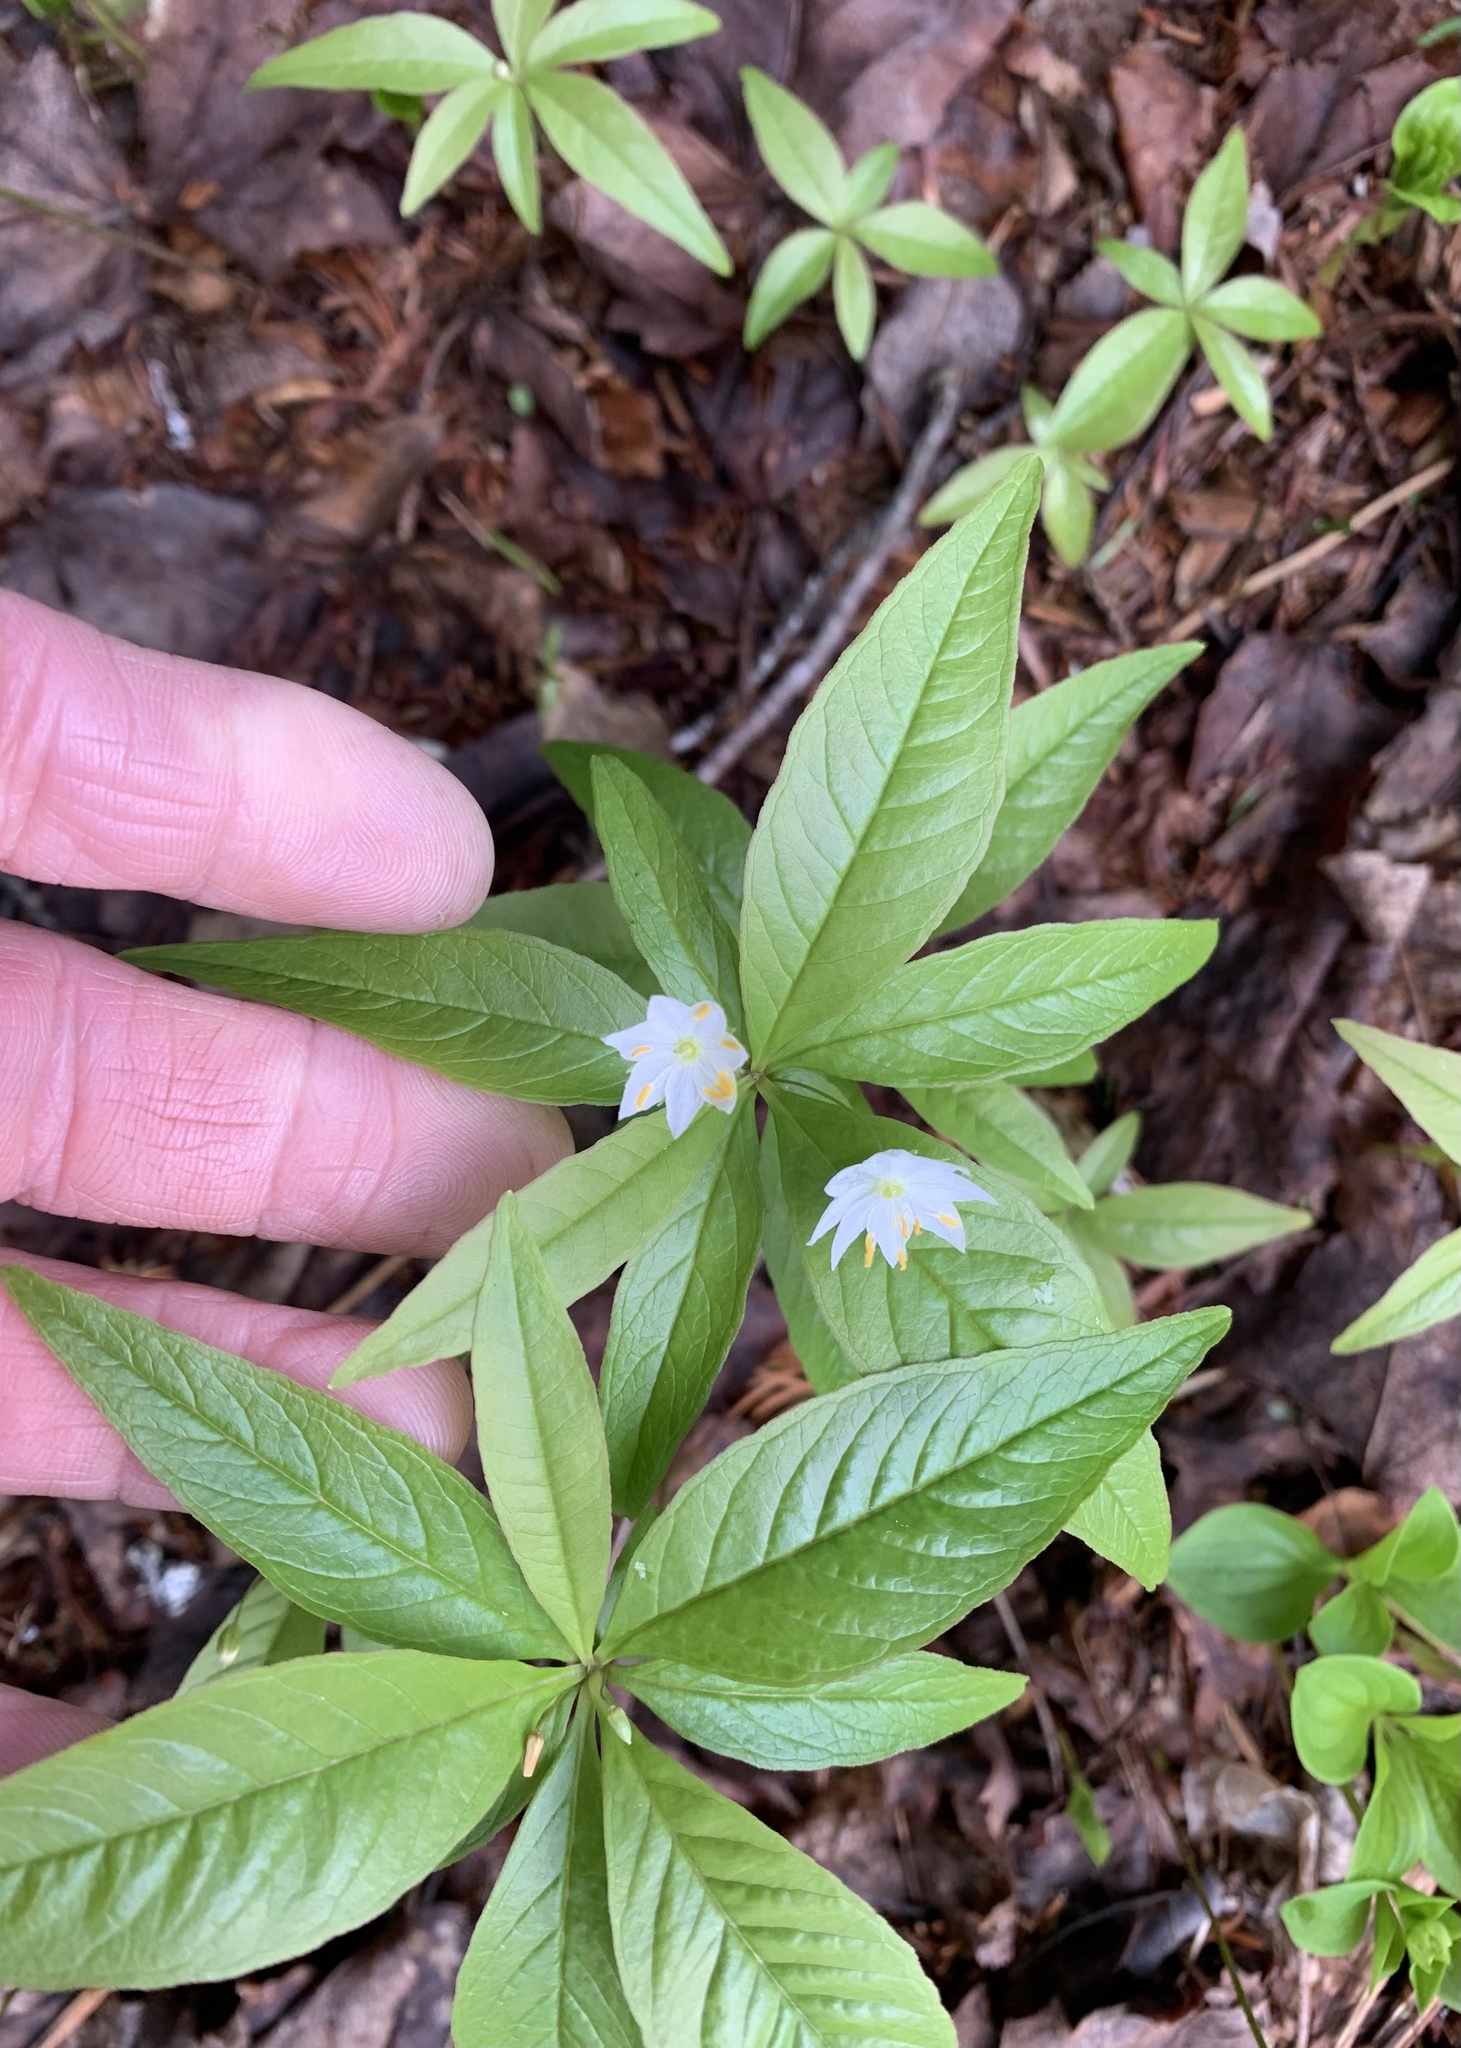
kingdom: Plantae
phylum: Tracheophyta
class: Magnoliopsida
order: Ericales
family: Primulaceae
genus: Lysimachia
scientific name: Lysimachia borealis
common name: American starflower
